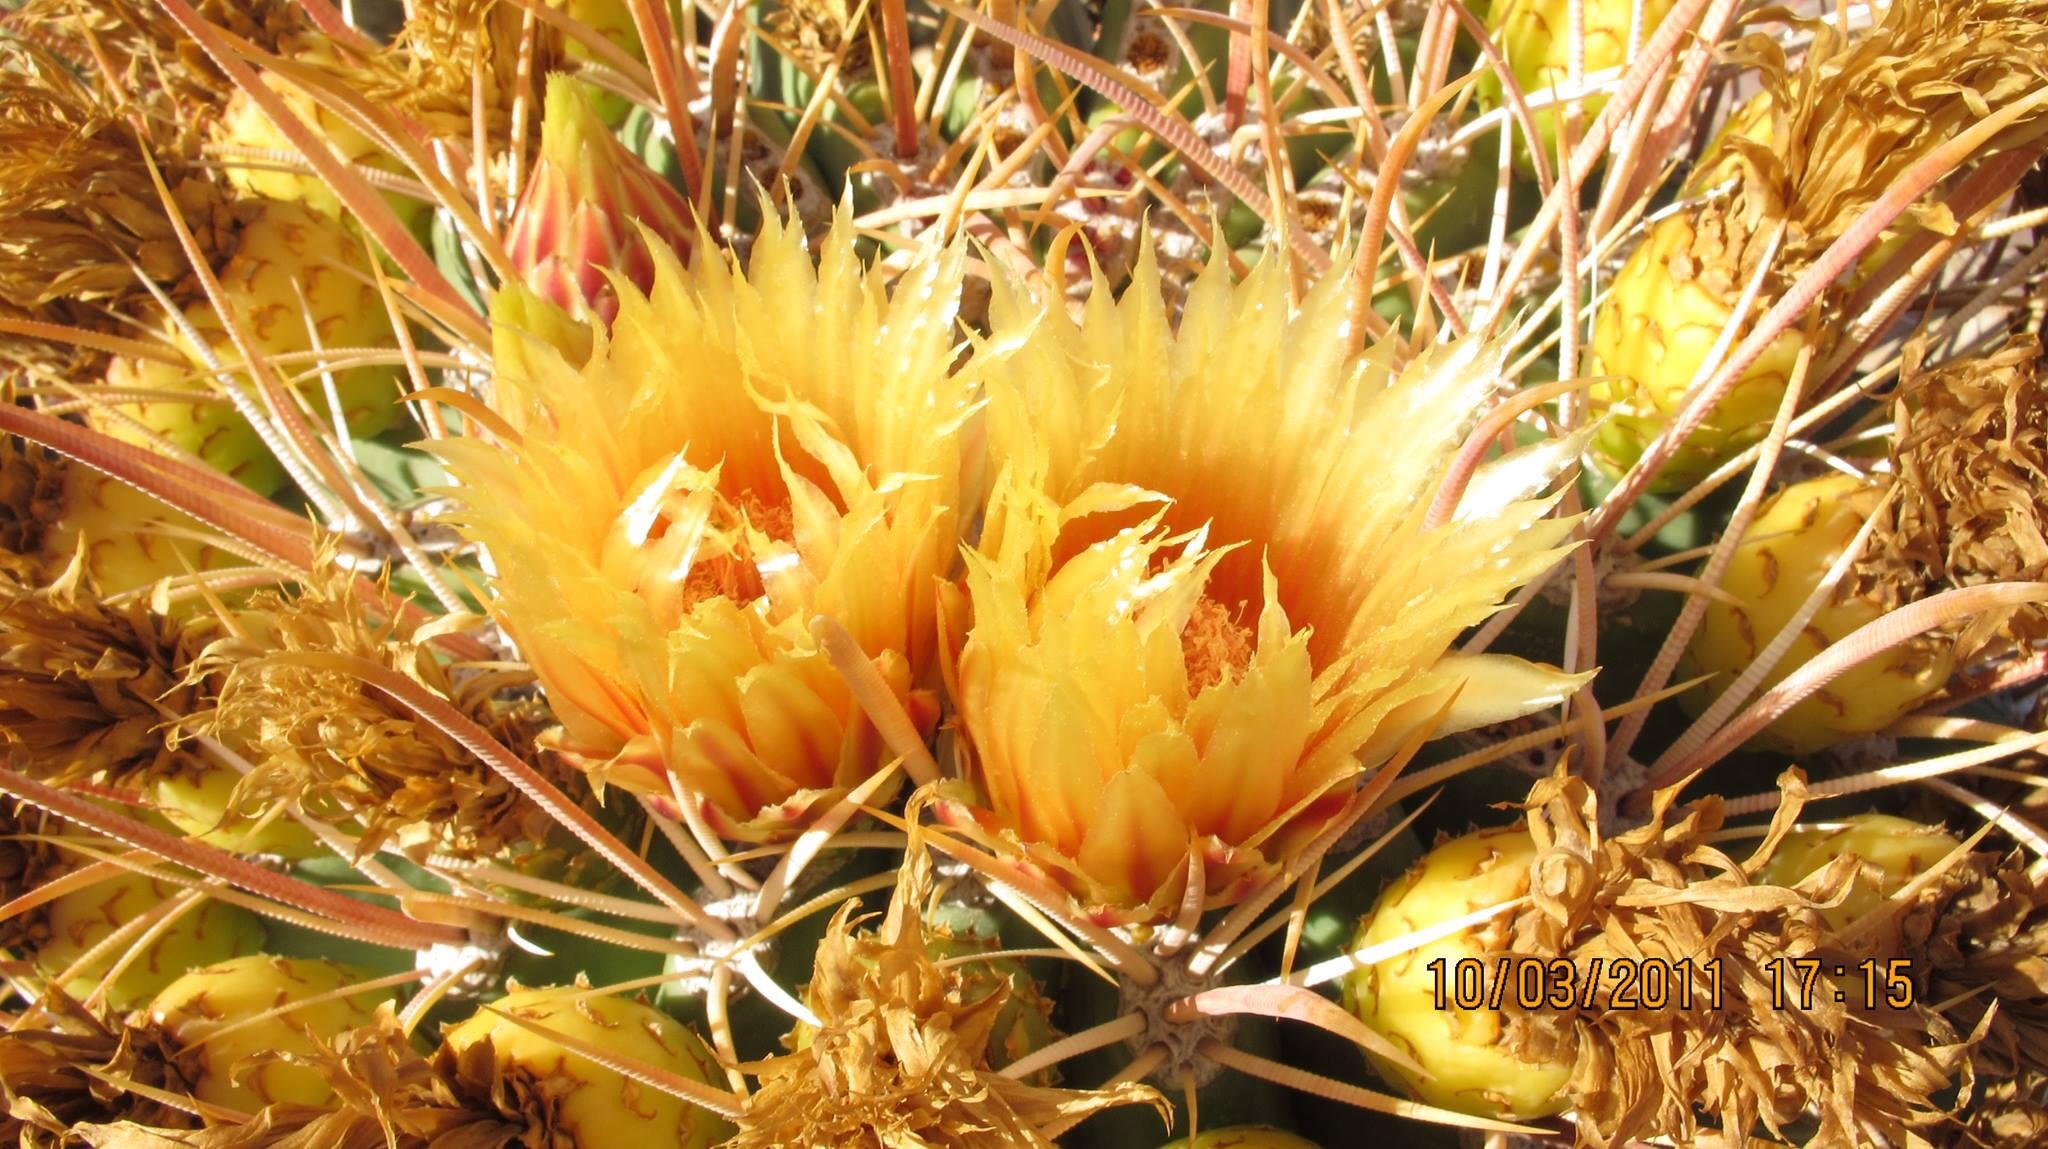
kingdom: Plantae
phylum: Tracheophyta
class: Magnoliopsida
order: Caryophyllales
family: Cactaceae
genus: Ferocactus
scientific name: Ferocactus cylindraceus
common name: California barrel cactus
